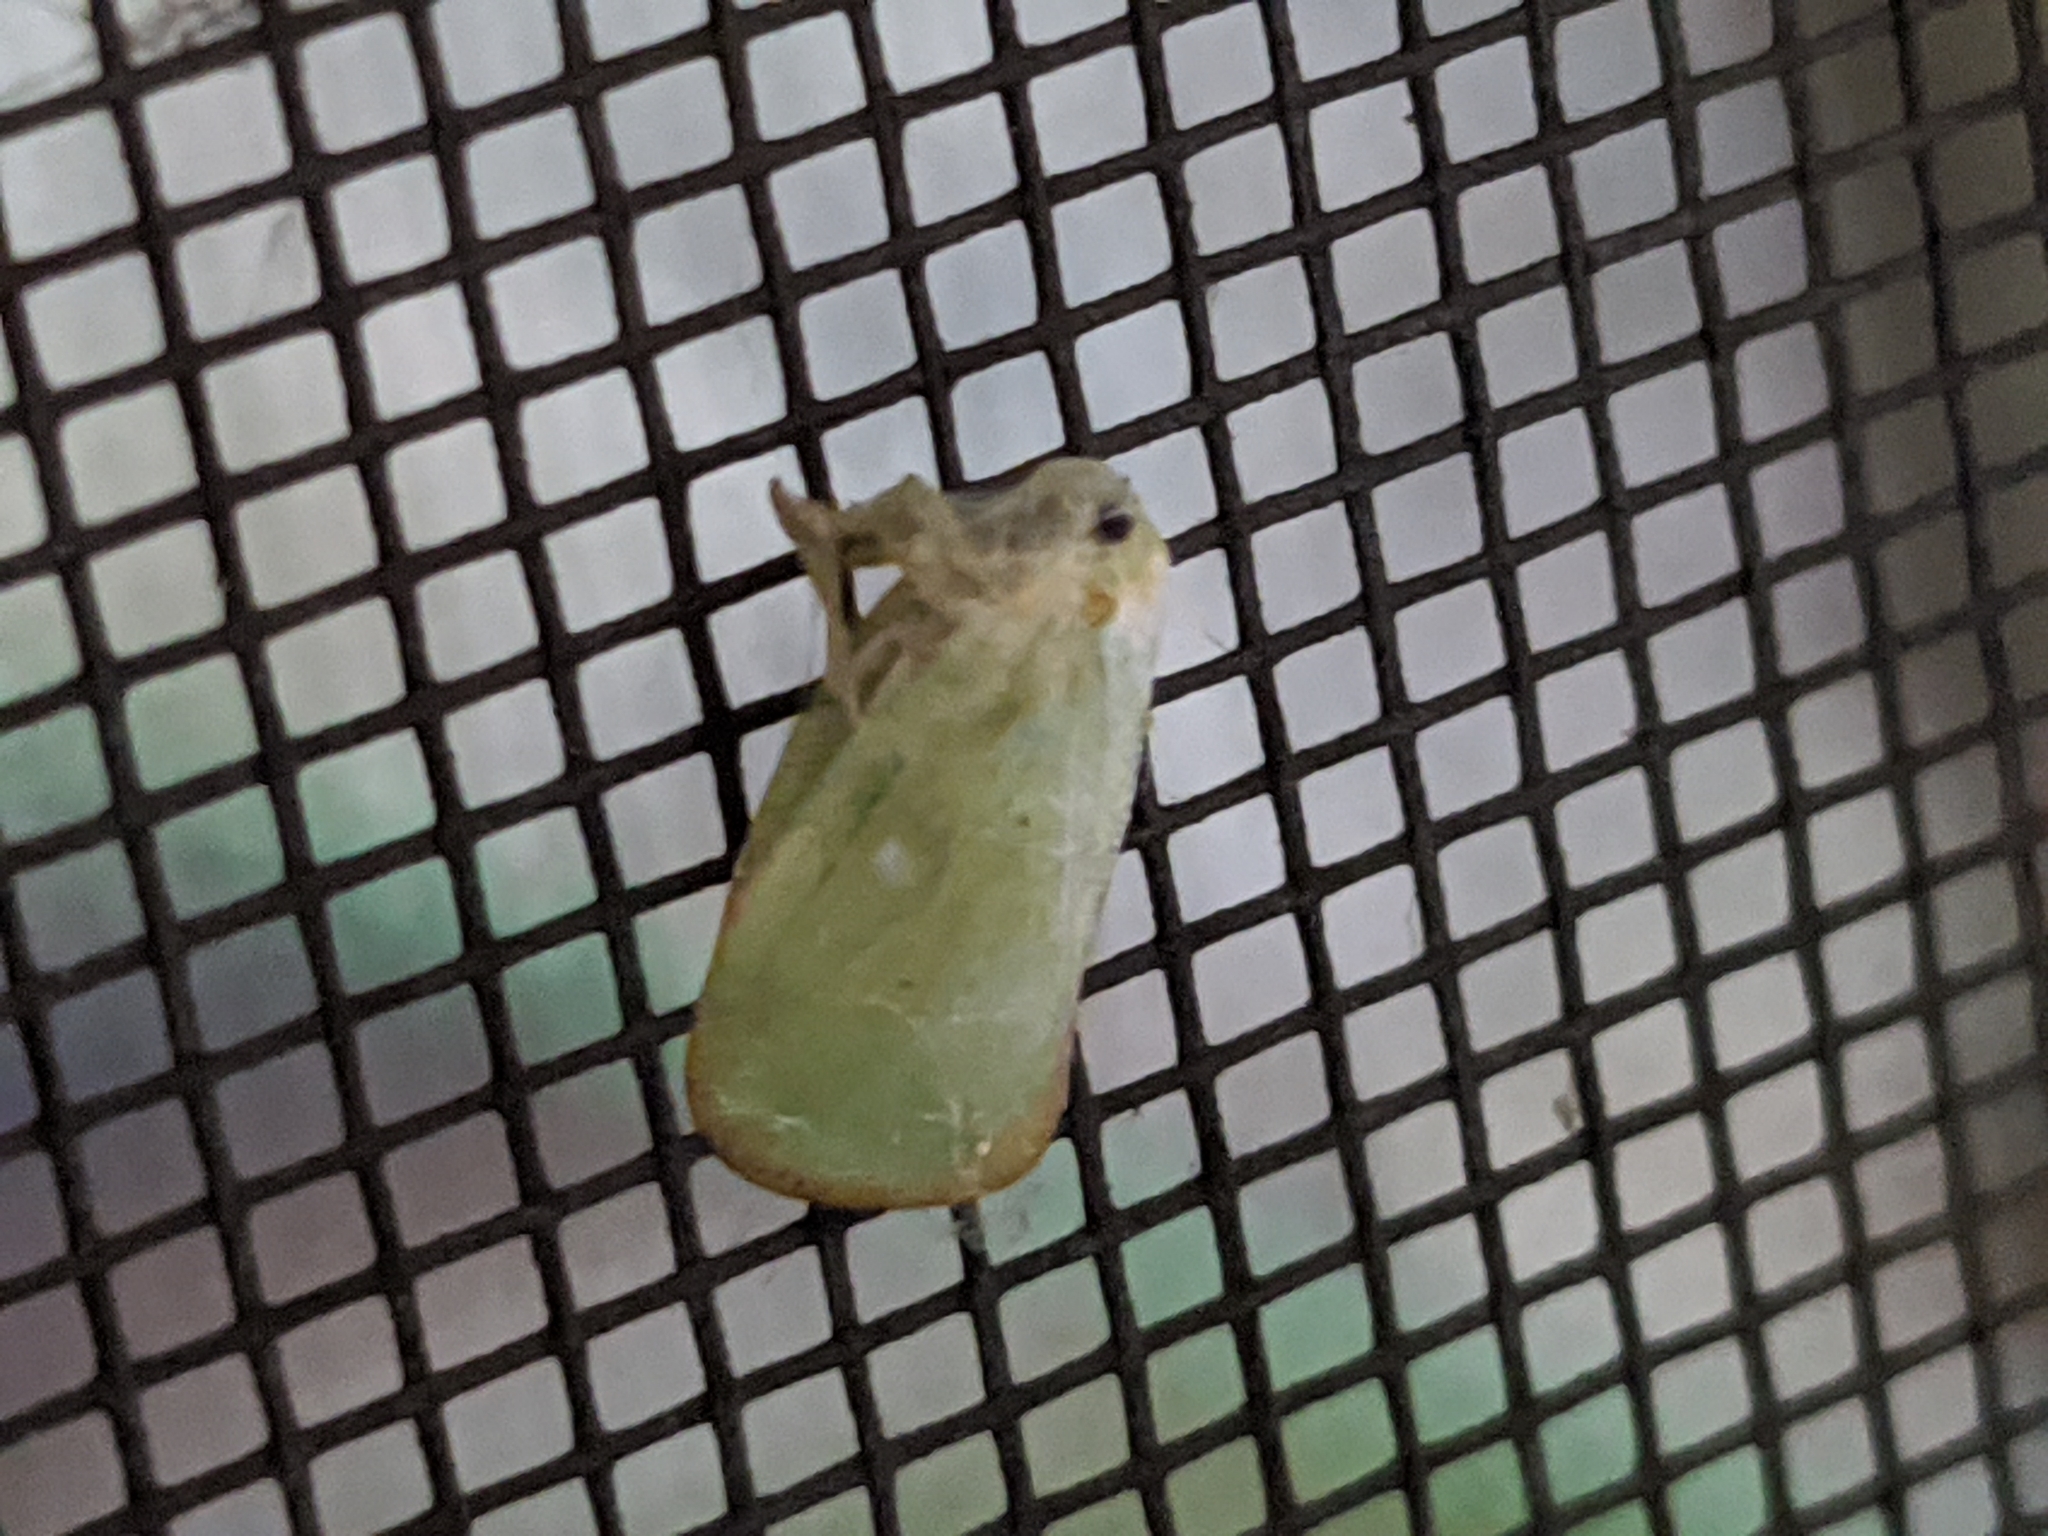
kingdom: Animalia
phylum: Arthropoda
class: Insecta
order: Hemiptera
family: Flatidae
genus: Ormenoides
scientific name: Ormenoides venusta
